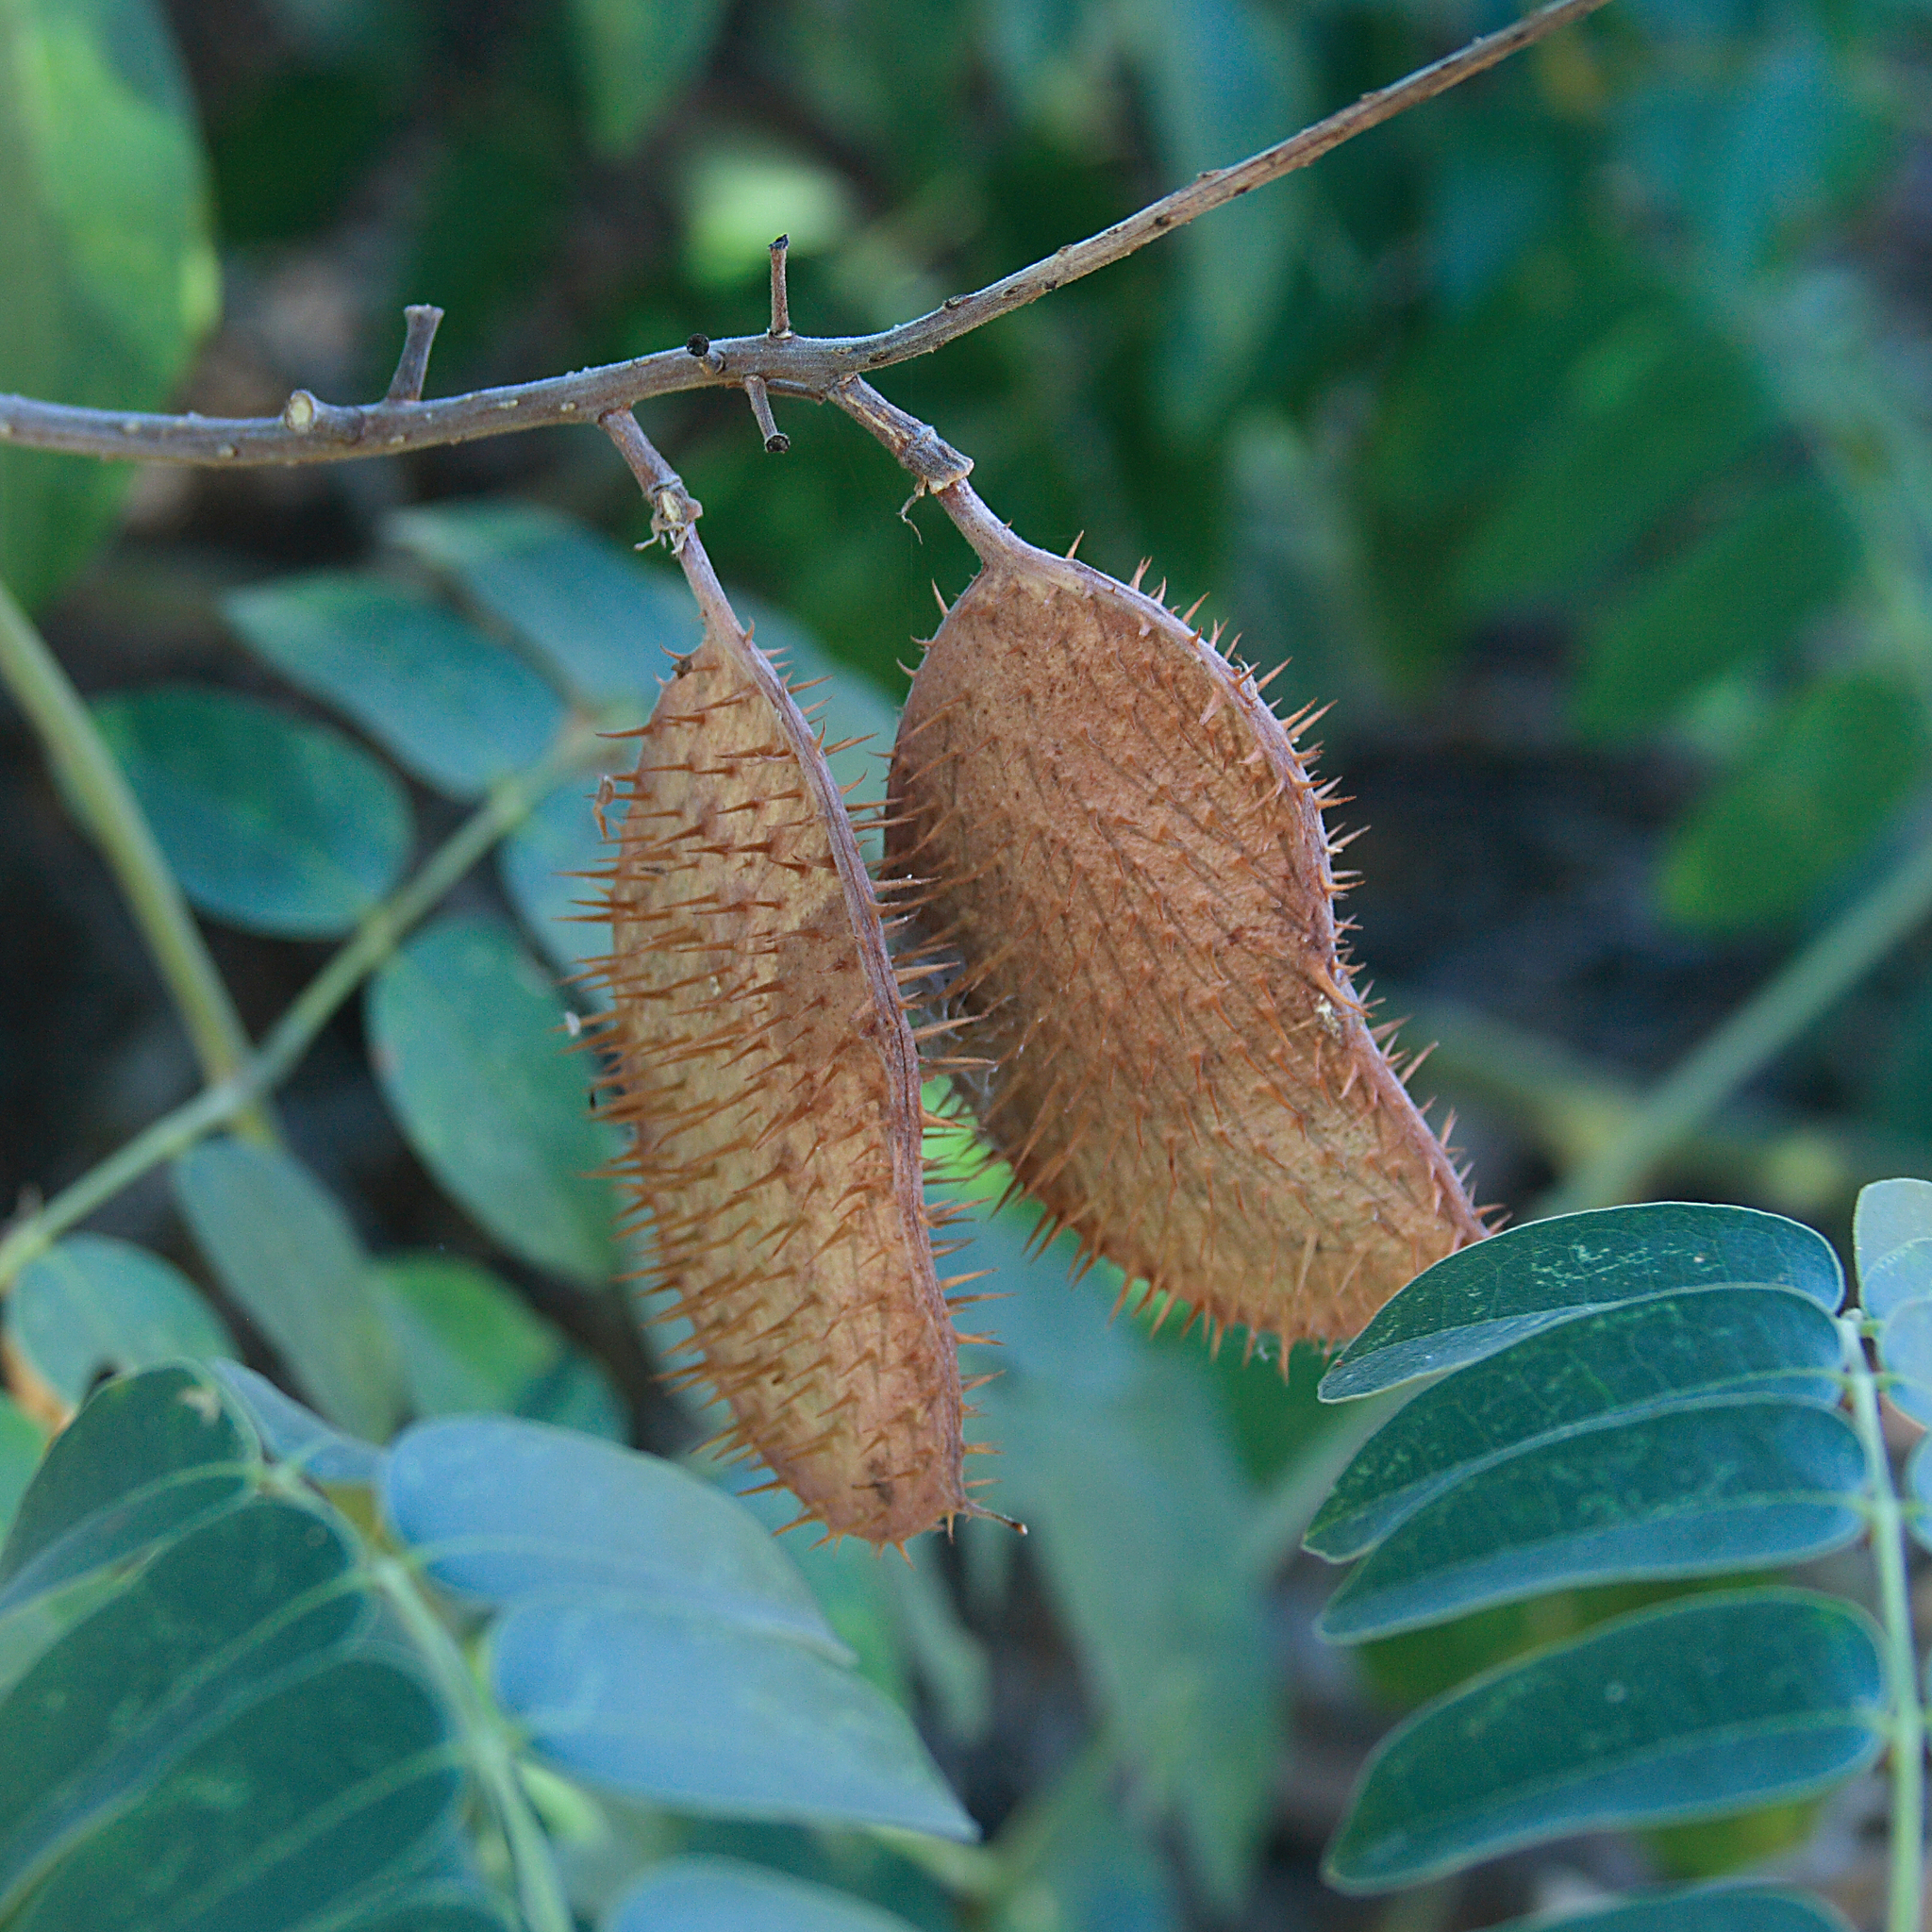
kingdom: Plantae
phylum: Tracheophyta
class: Magnoliopsida
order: Fabales
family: Fabaceae
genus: Guilandina
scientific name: Guilandina bonduc
